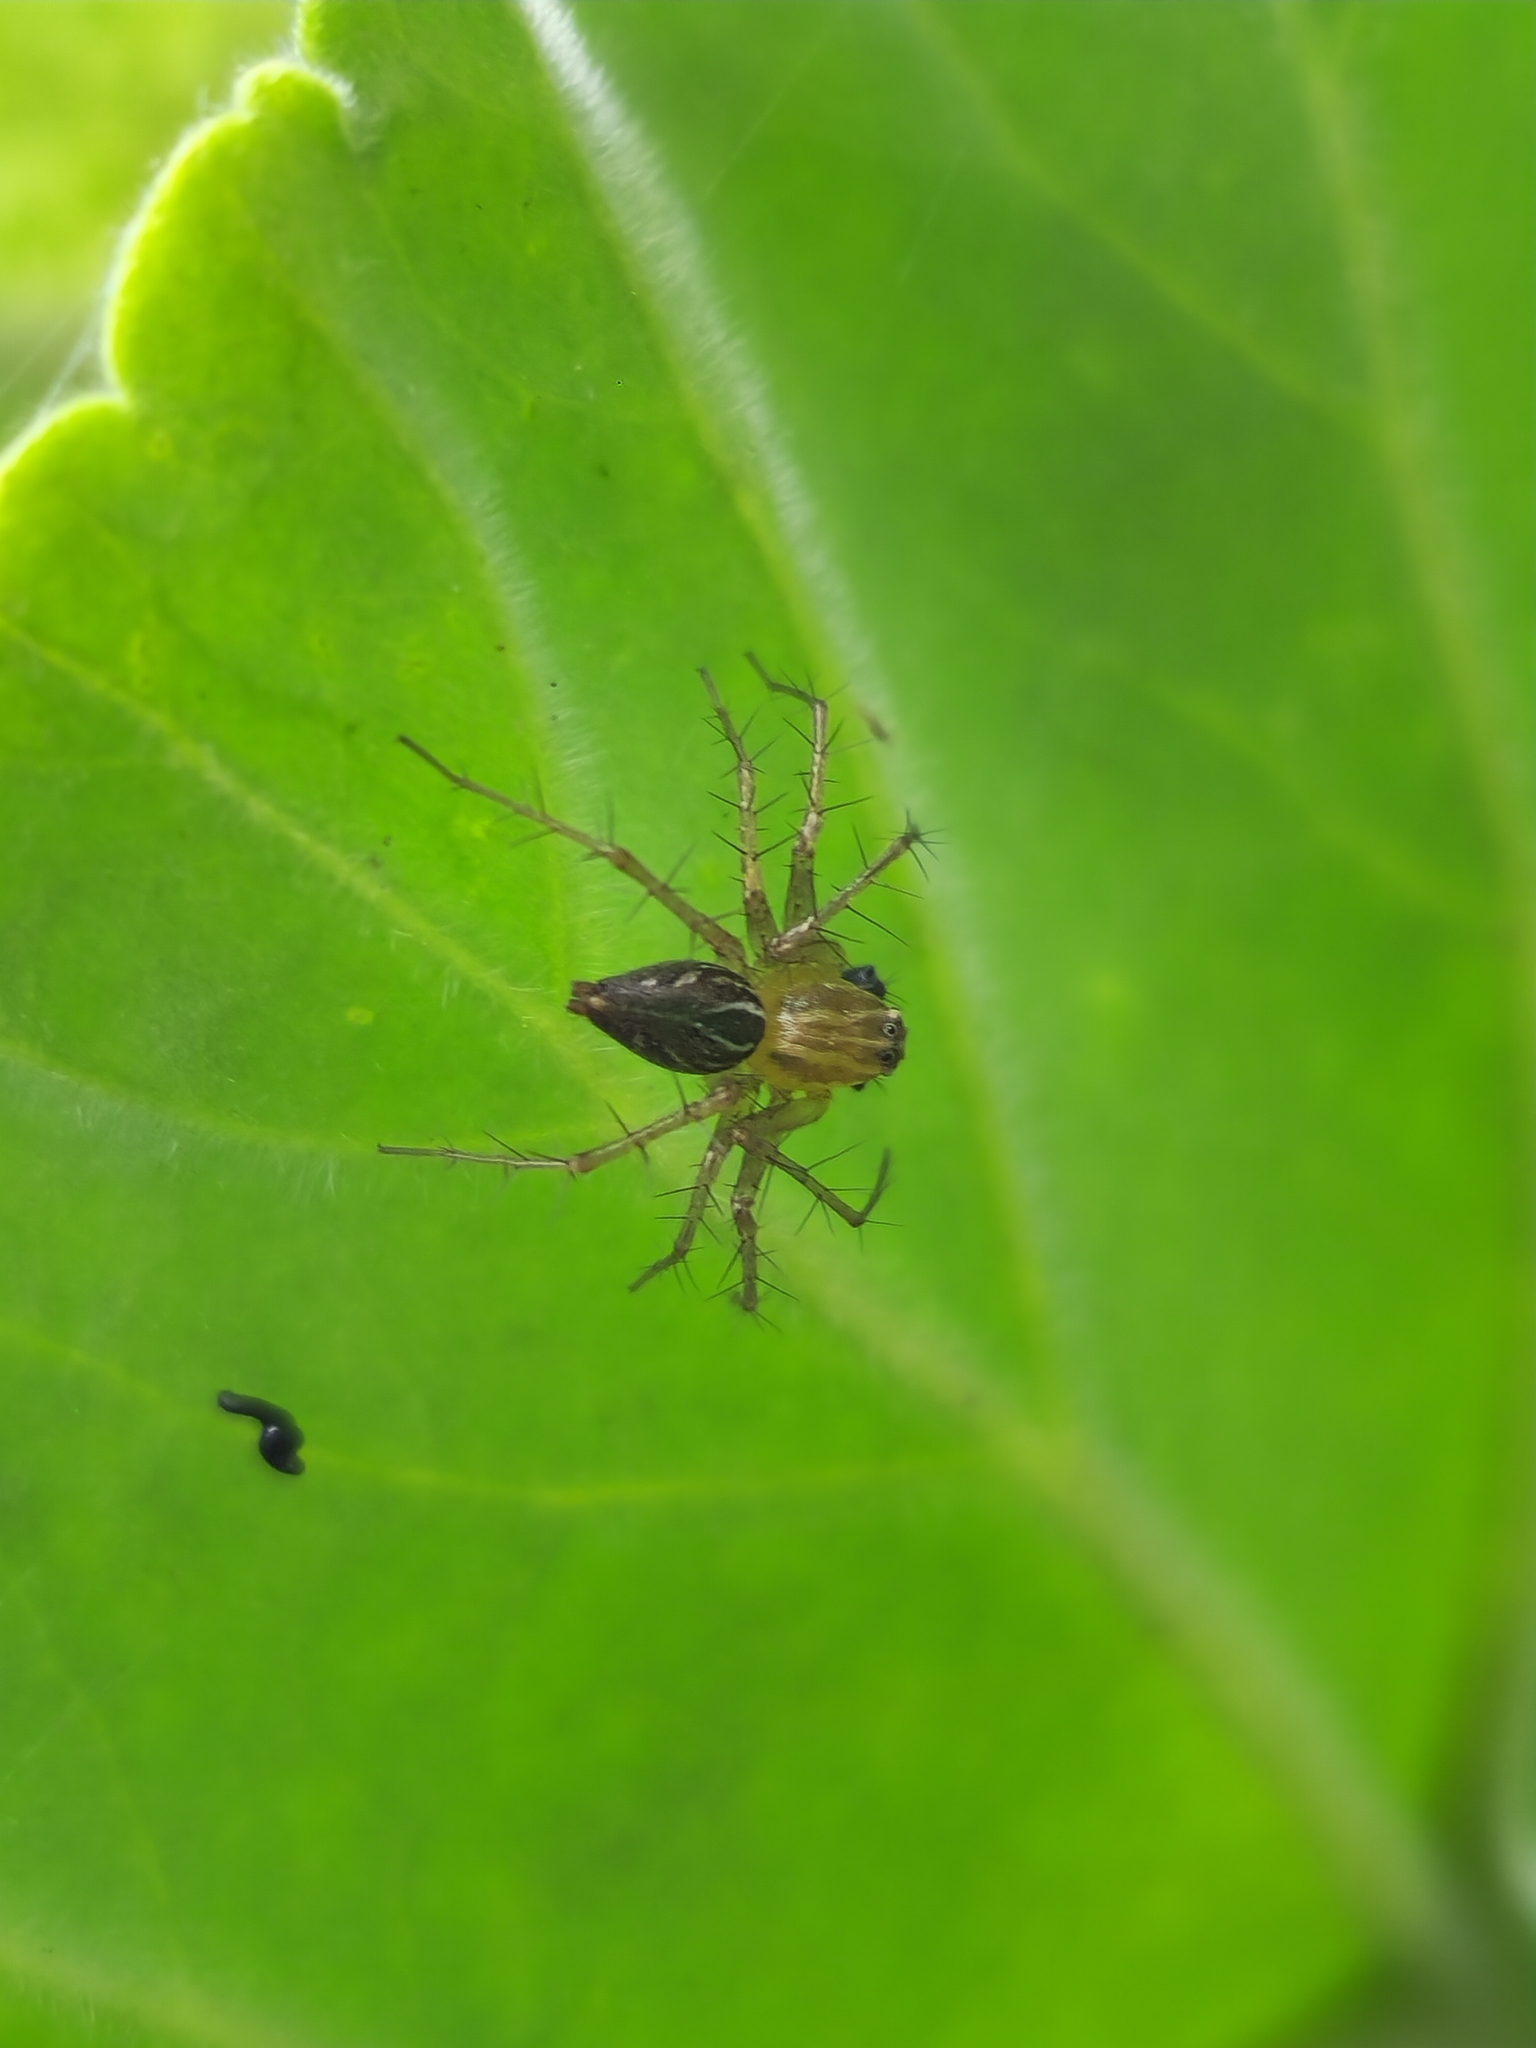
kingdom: Animalia
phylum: Arthropoda
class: Arachnida
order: Araneae
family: Oxyopidae
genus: Oxyopes
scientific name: Oxyopes salticus
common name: Lynx spiders
